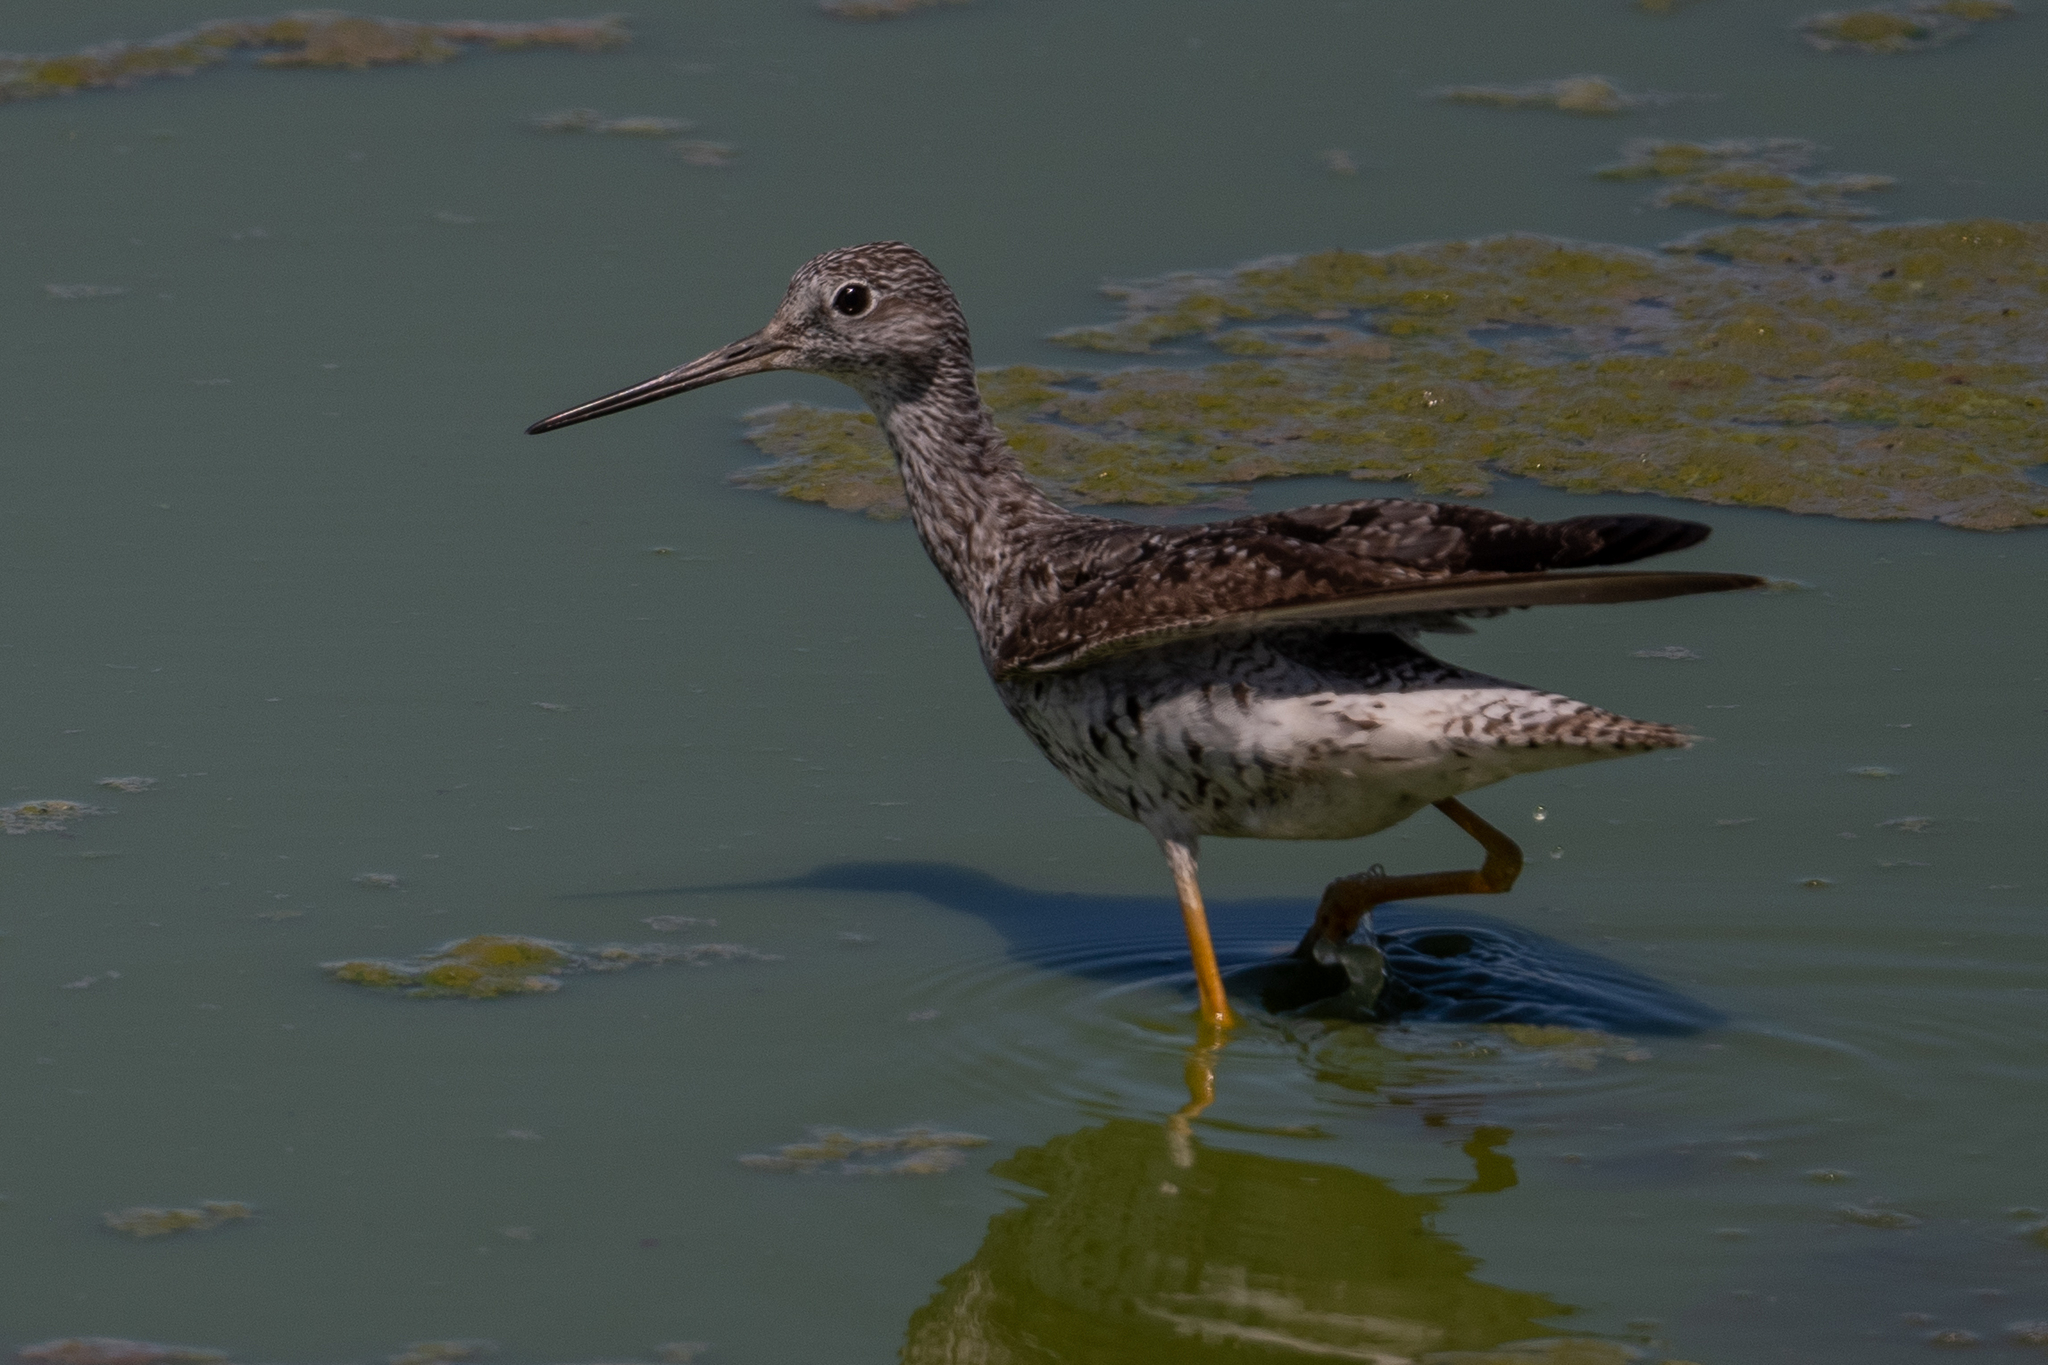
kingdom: Animalia
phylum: Chordata
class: Aves
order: Charadriiformes
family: Scolopacidae
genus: Tringa
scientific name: Tringa melanoleuca
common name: Greater yellowlegs
